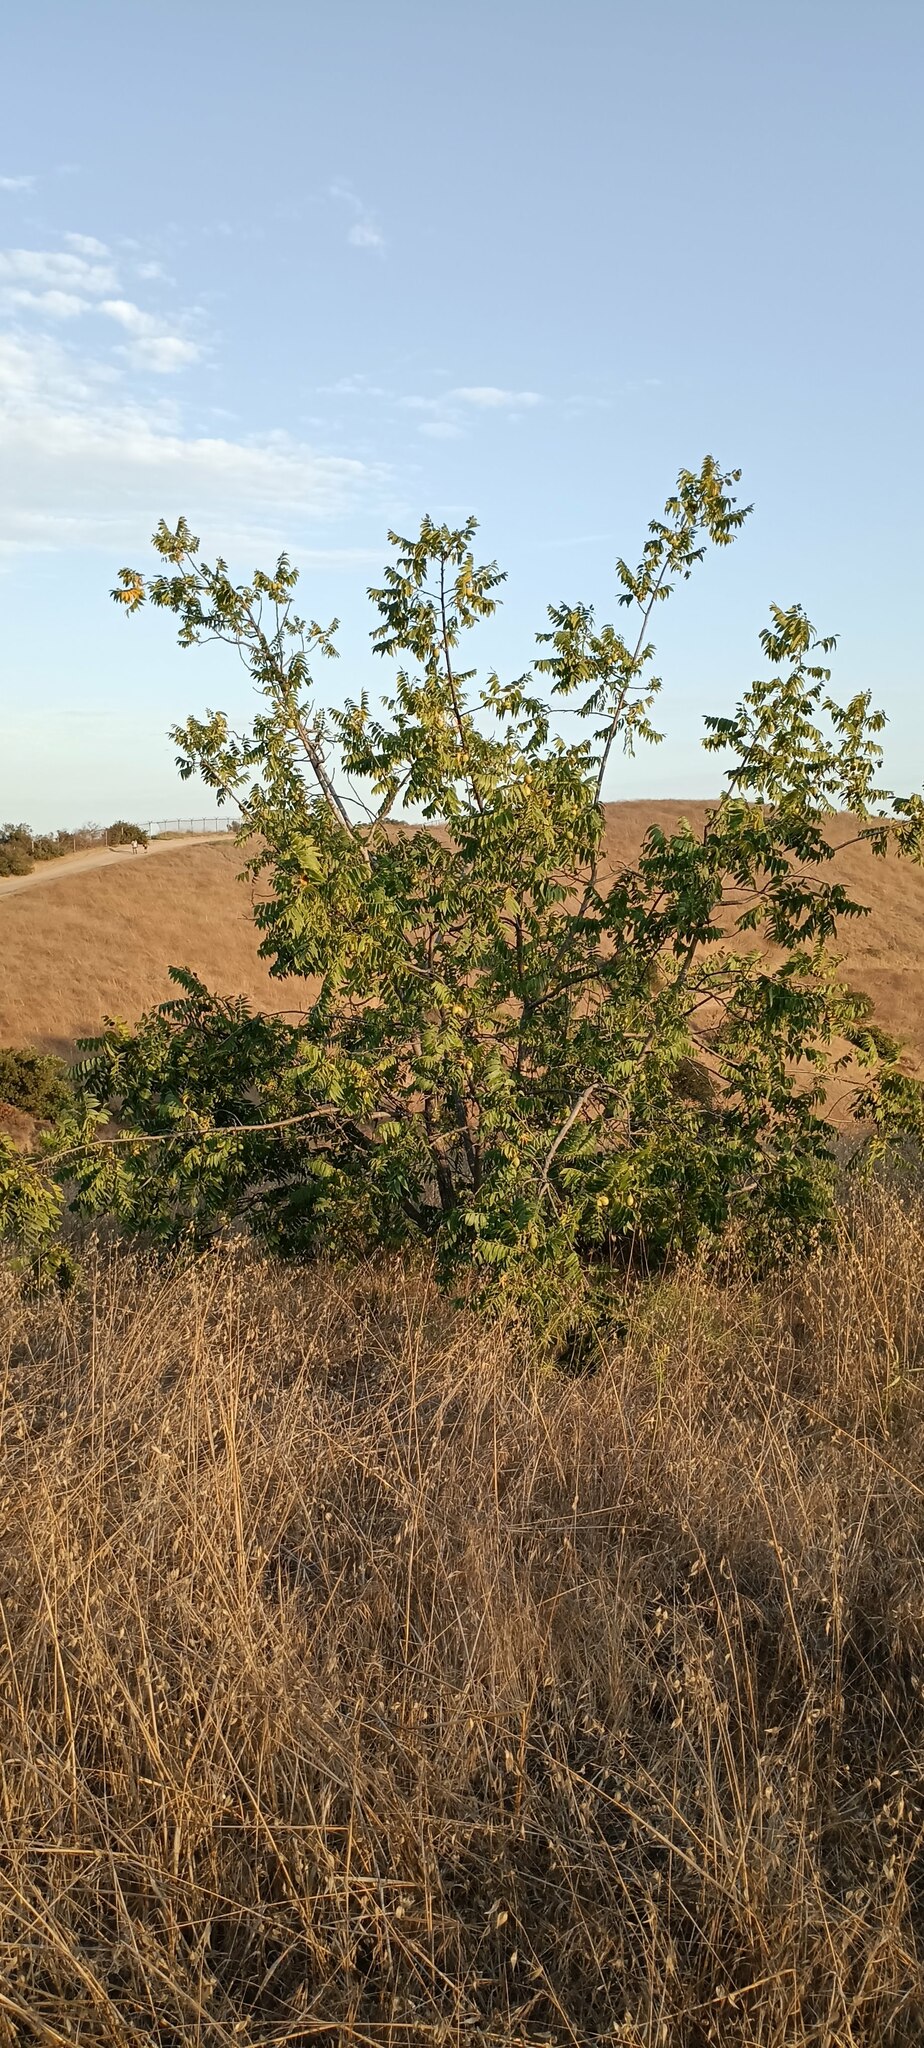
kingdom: Plantae
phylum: Tracheophyta
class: Magnoliopsida
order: Fagales
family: Juglandaceae
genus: Juglans
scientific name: Juglans californica
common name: Southern california black walnut
